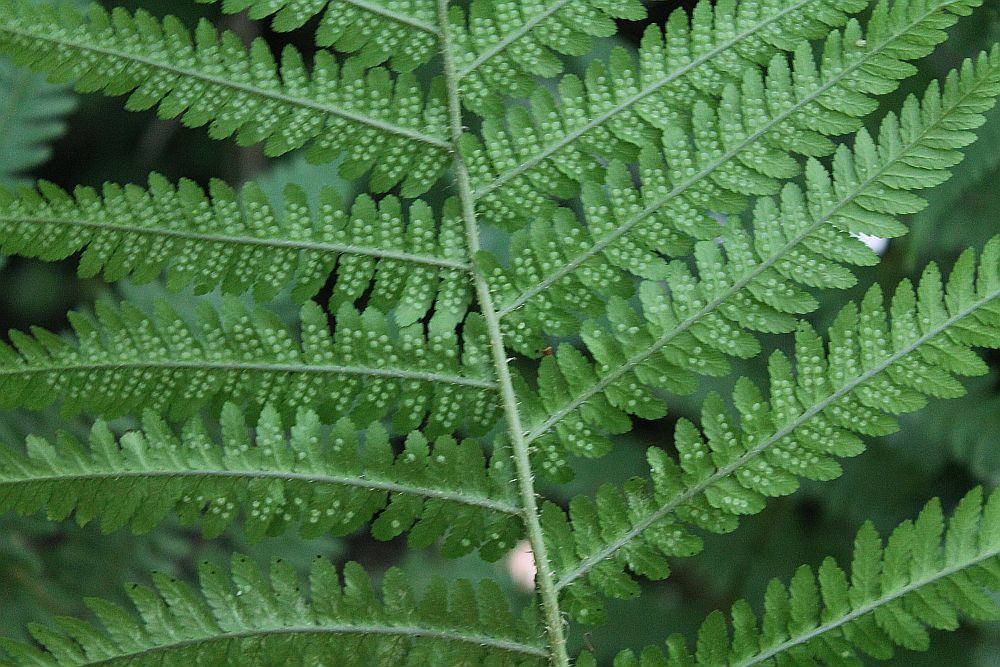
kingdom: Plantae
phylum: Tracheophyta
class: Polypodiopsida
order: Polypodiales
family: Dryopteridaceae
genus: Dryopteris
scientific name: Dryopteris filix-mas
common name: Male fern
